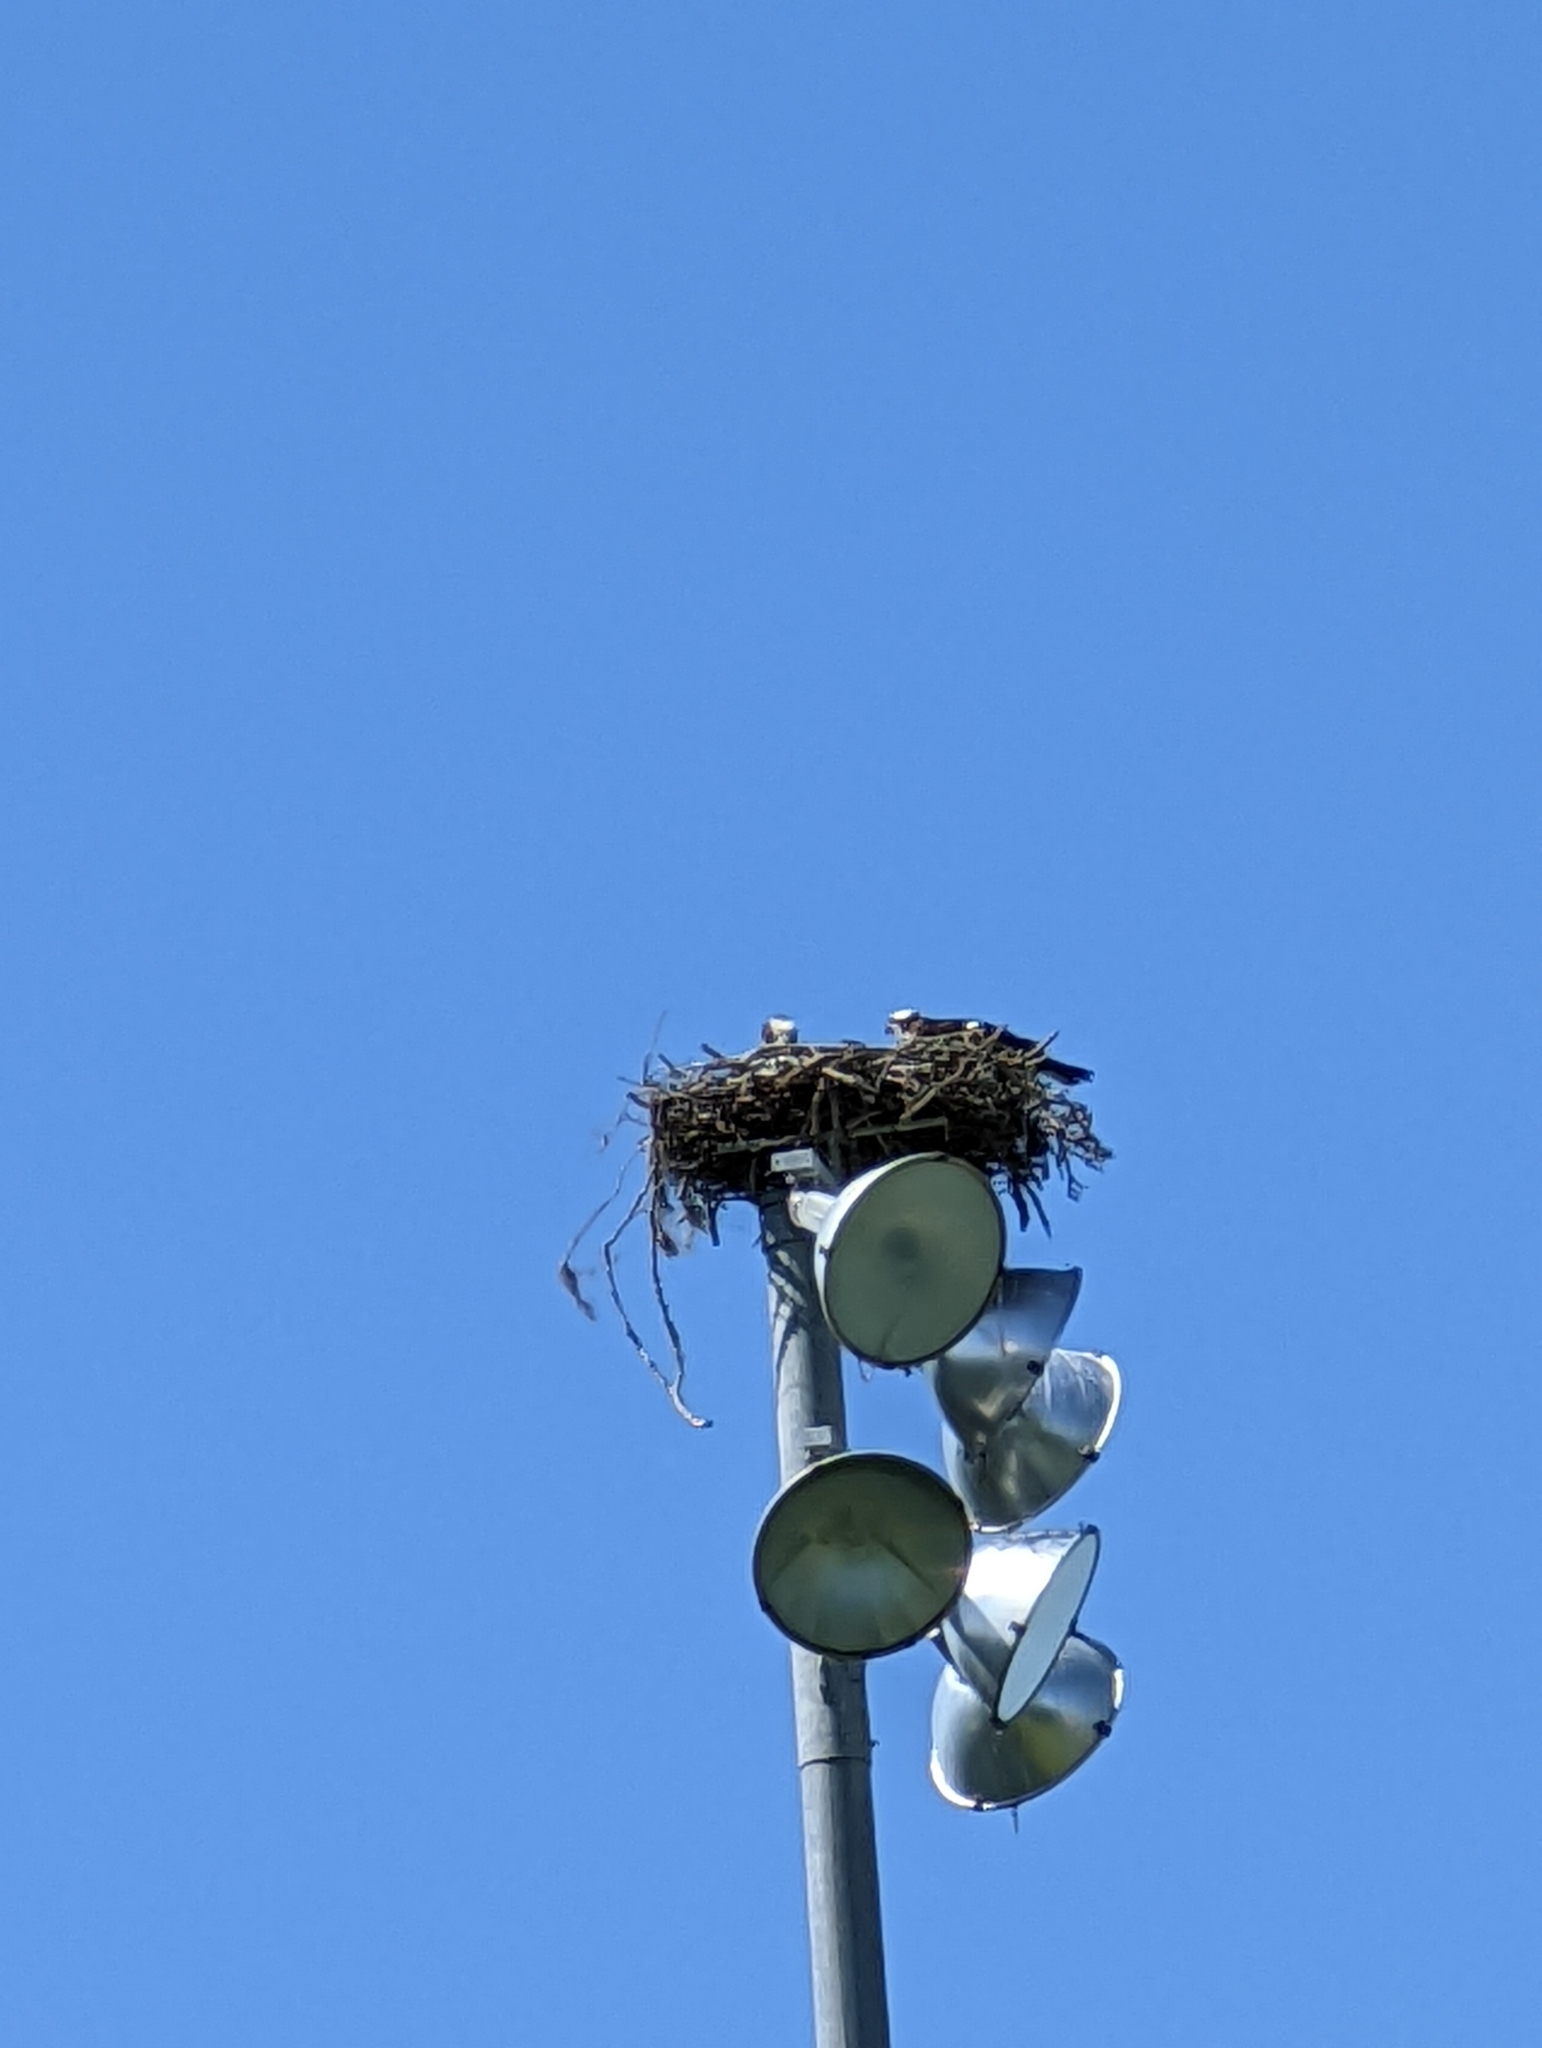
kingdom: Animalia
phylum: Chordata
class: Aves
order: Accipitriformes
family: Pandionidae
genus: Pandion
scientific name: Pandion haliaetus
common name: Osprey
